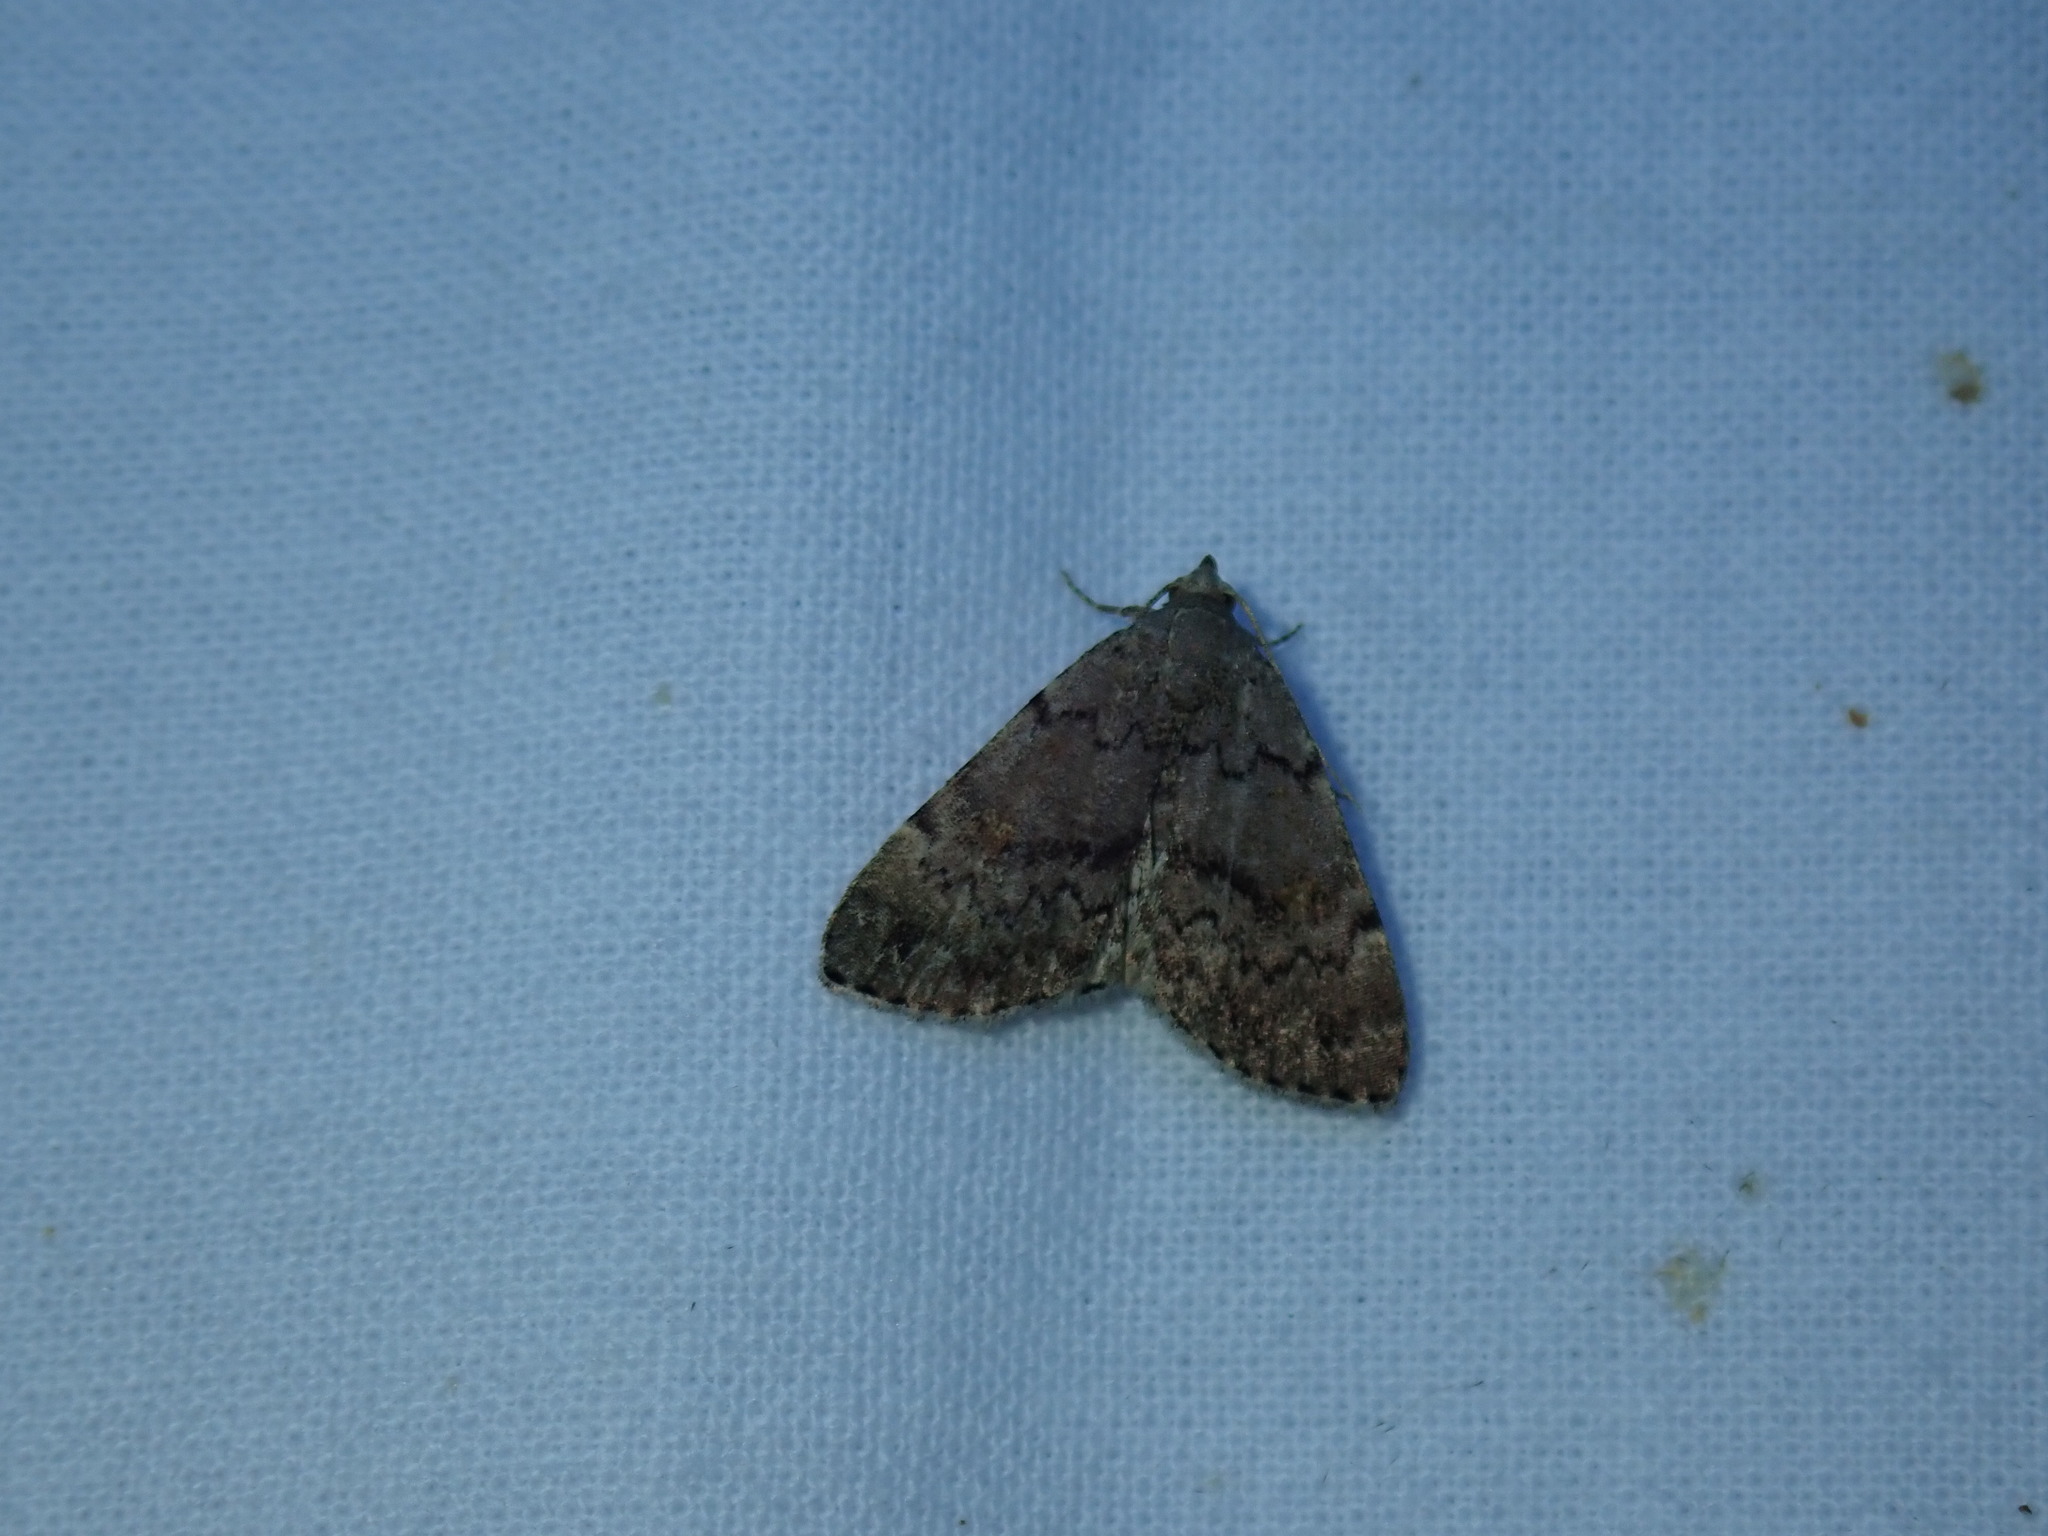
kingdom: Animalia
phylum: Arthropoda
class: Insecta
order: Lepidoptera
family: Erebidae
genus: Idia
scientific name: Idia aemula
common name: Common idia moth
